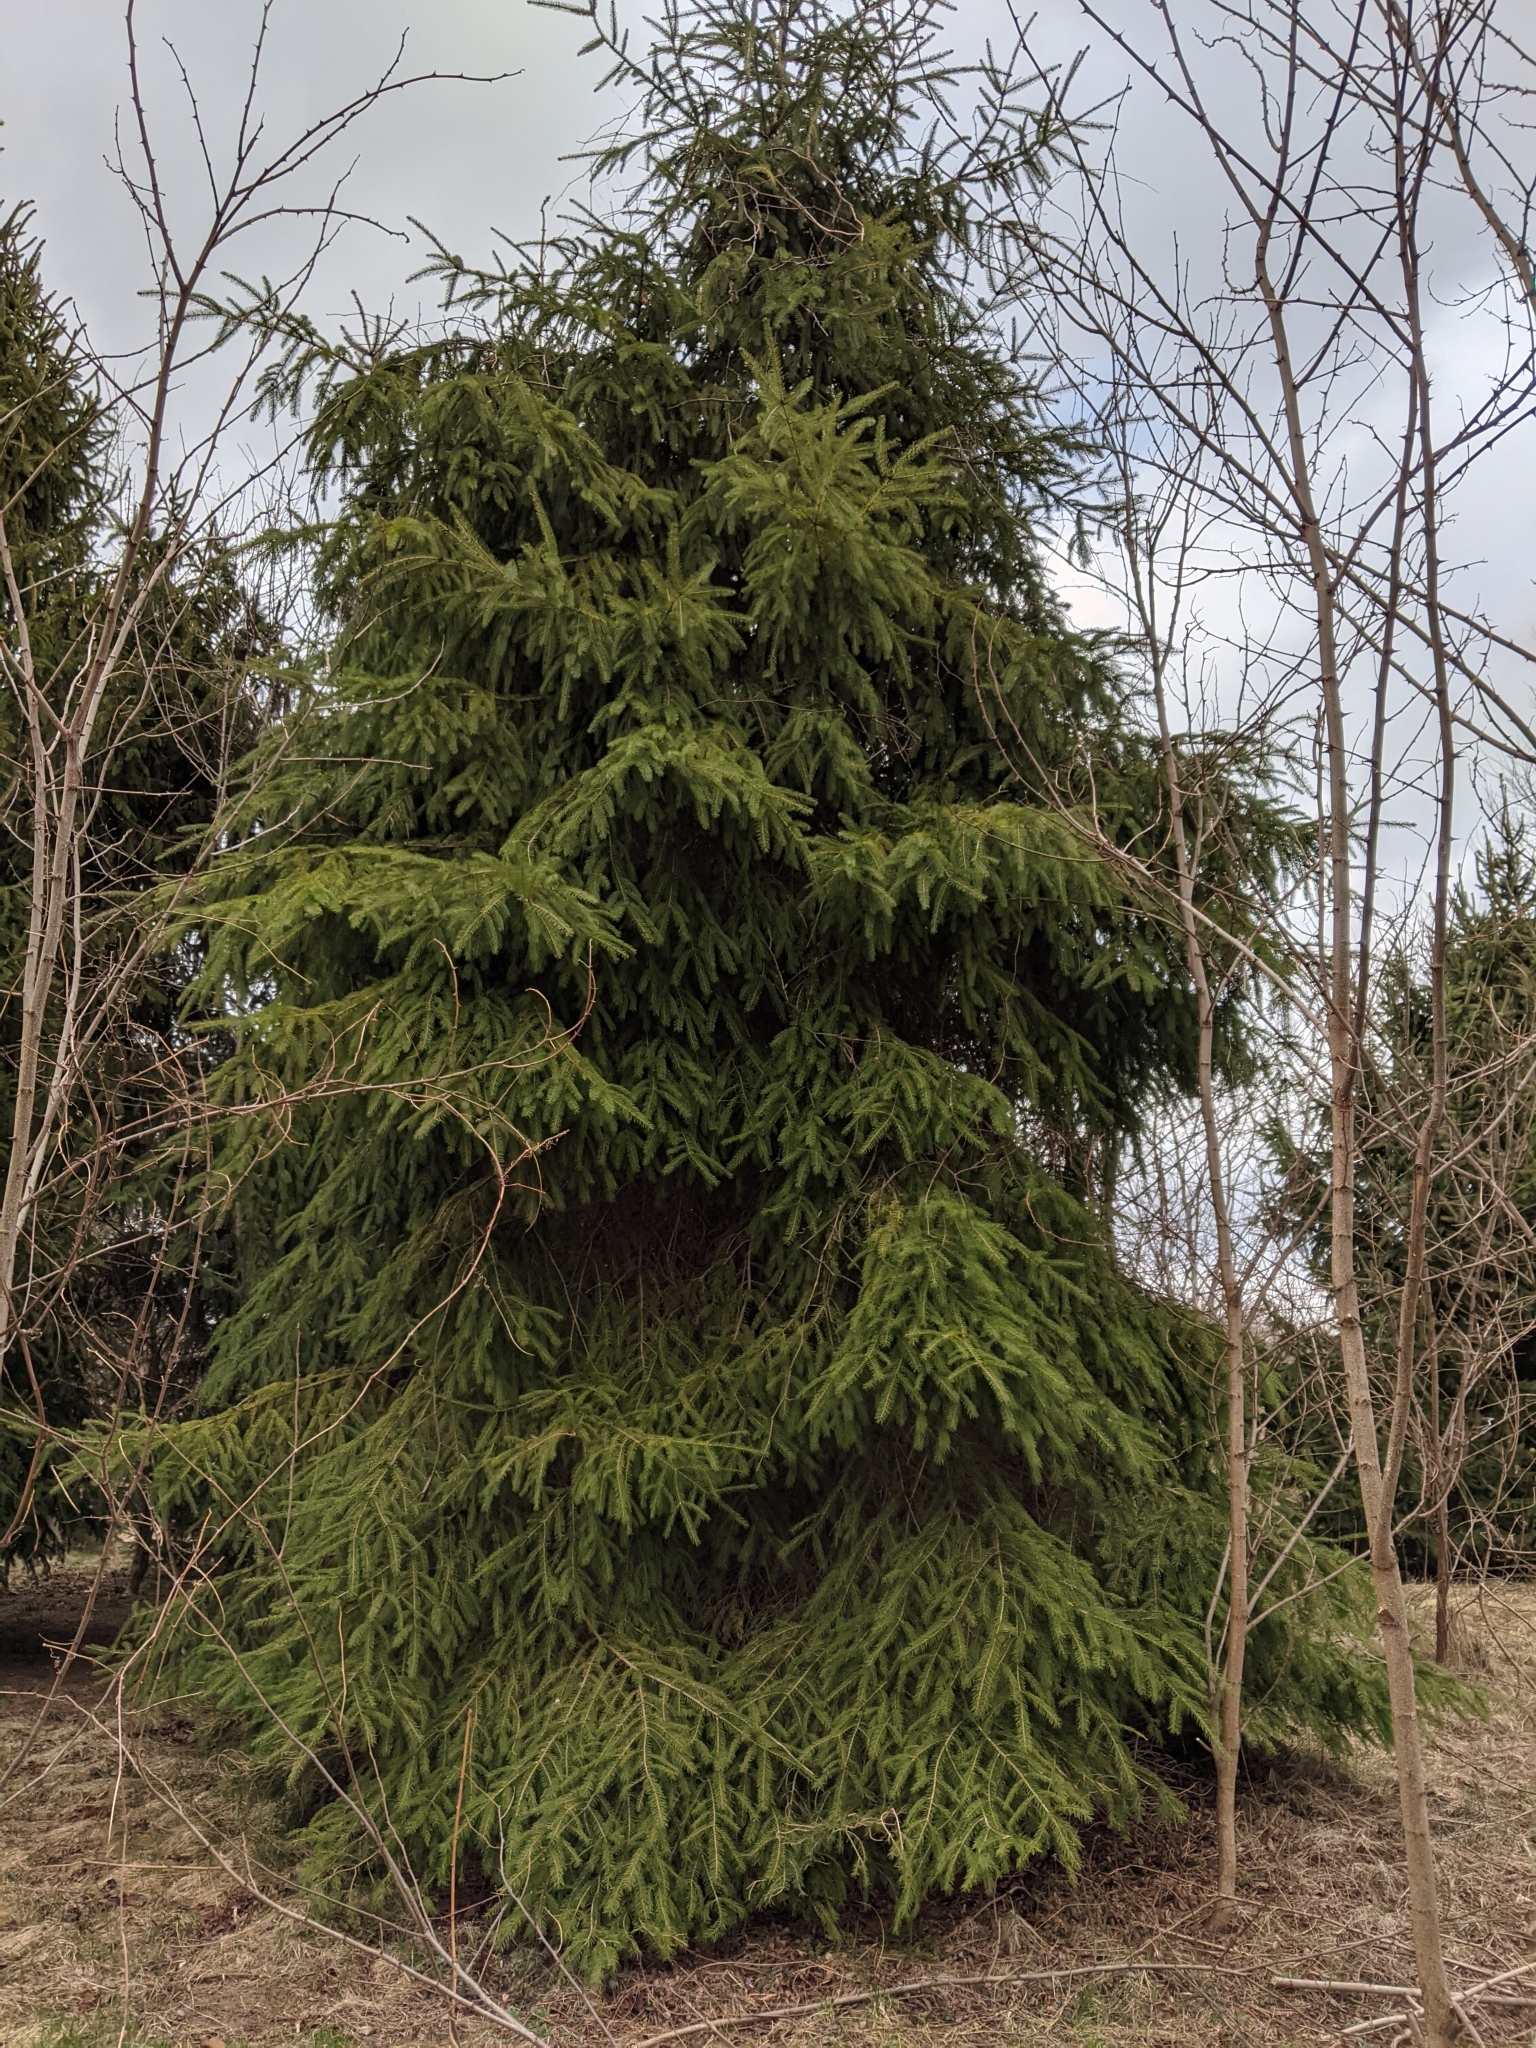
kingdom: Plantae
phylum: Tracheophyta
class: Pinopsida
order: Pinales
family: Pinaceae
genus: Picea
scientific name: Picea abies
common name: Norway spruce
